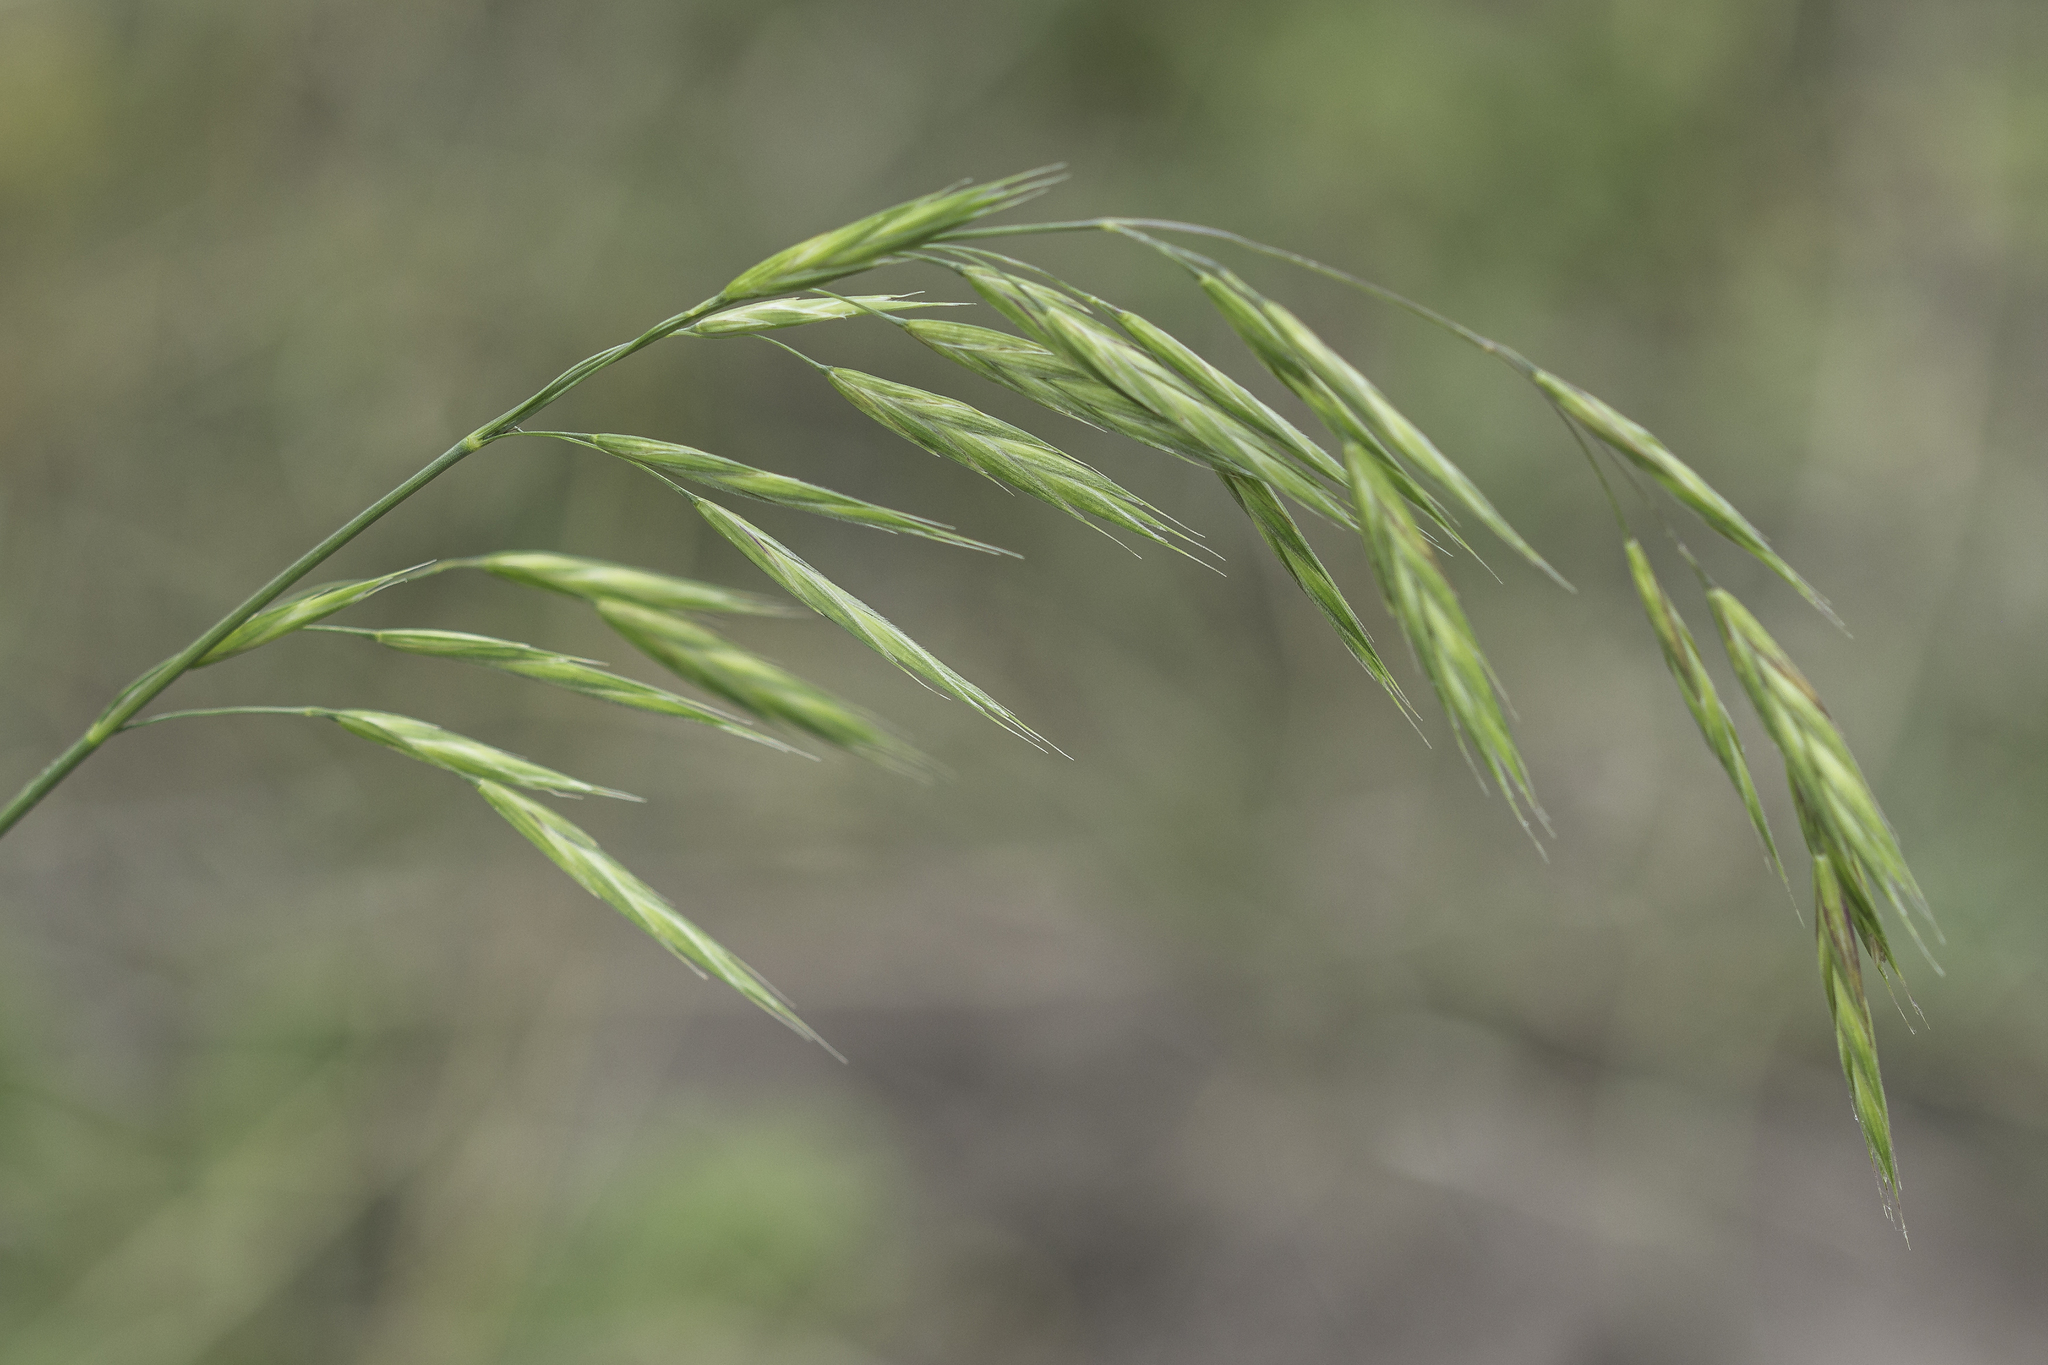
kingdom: Plantae
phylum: Tracheophyta
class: Liliopsida
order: Poales
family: Poaceae
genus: Bromus
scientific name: Bromus carinatus
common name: Mountain brome
